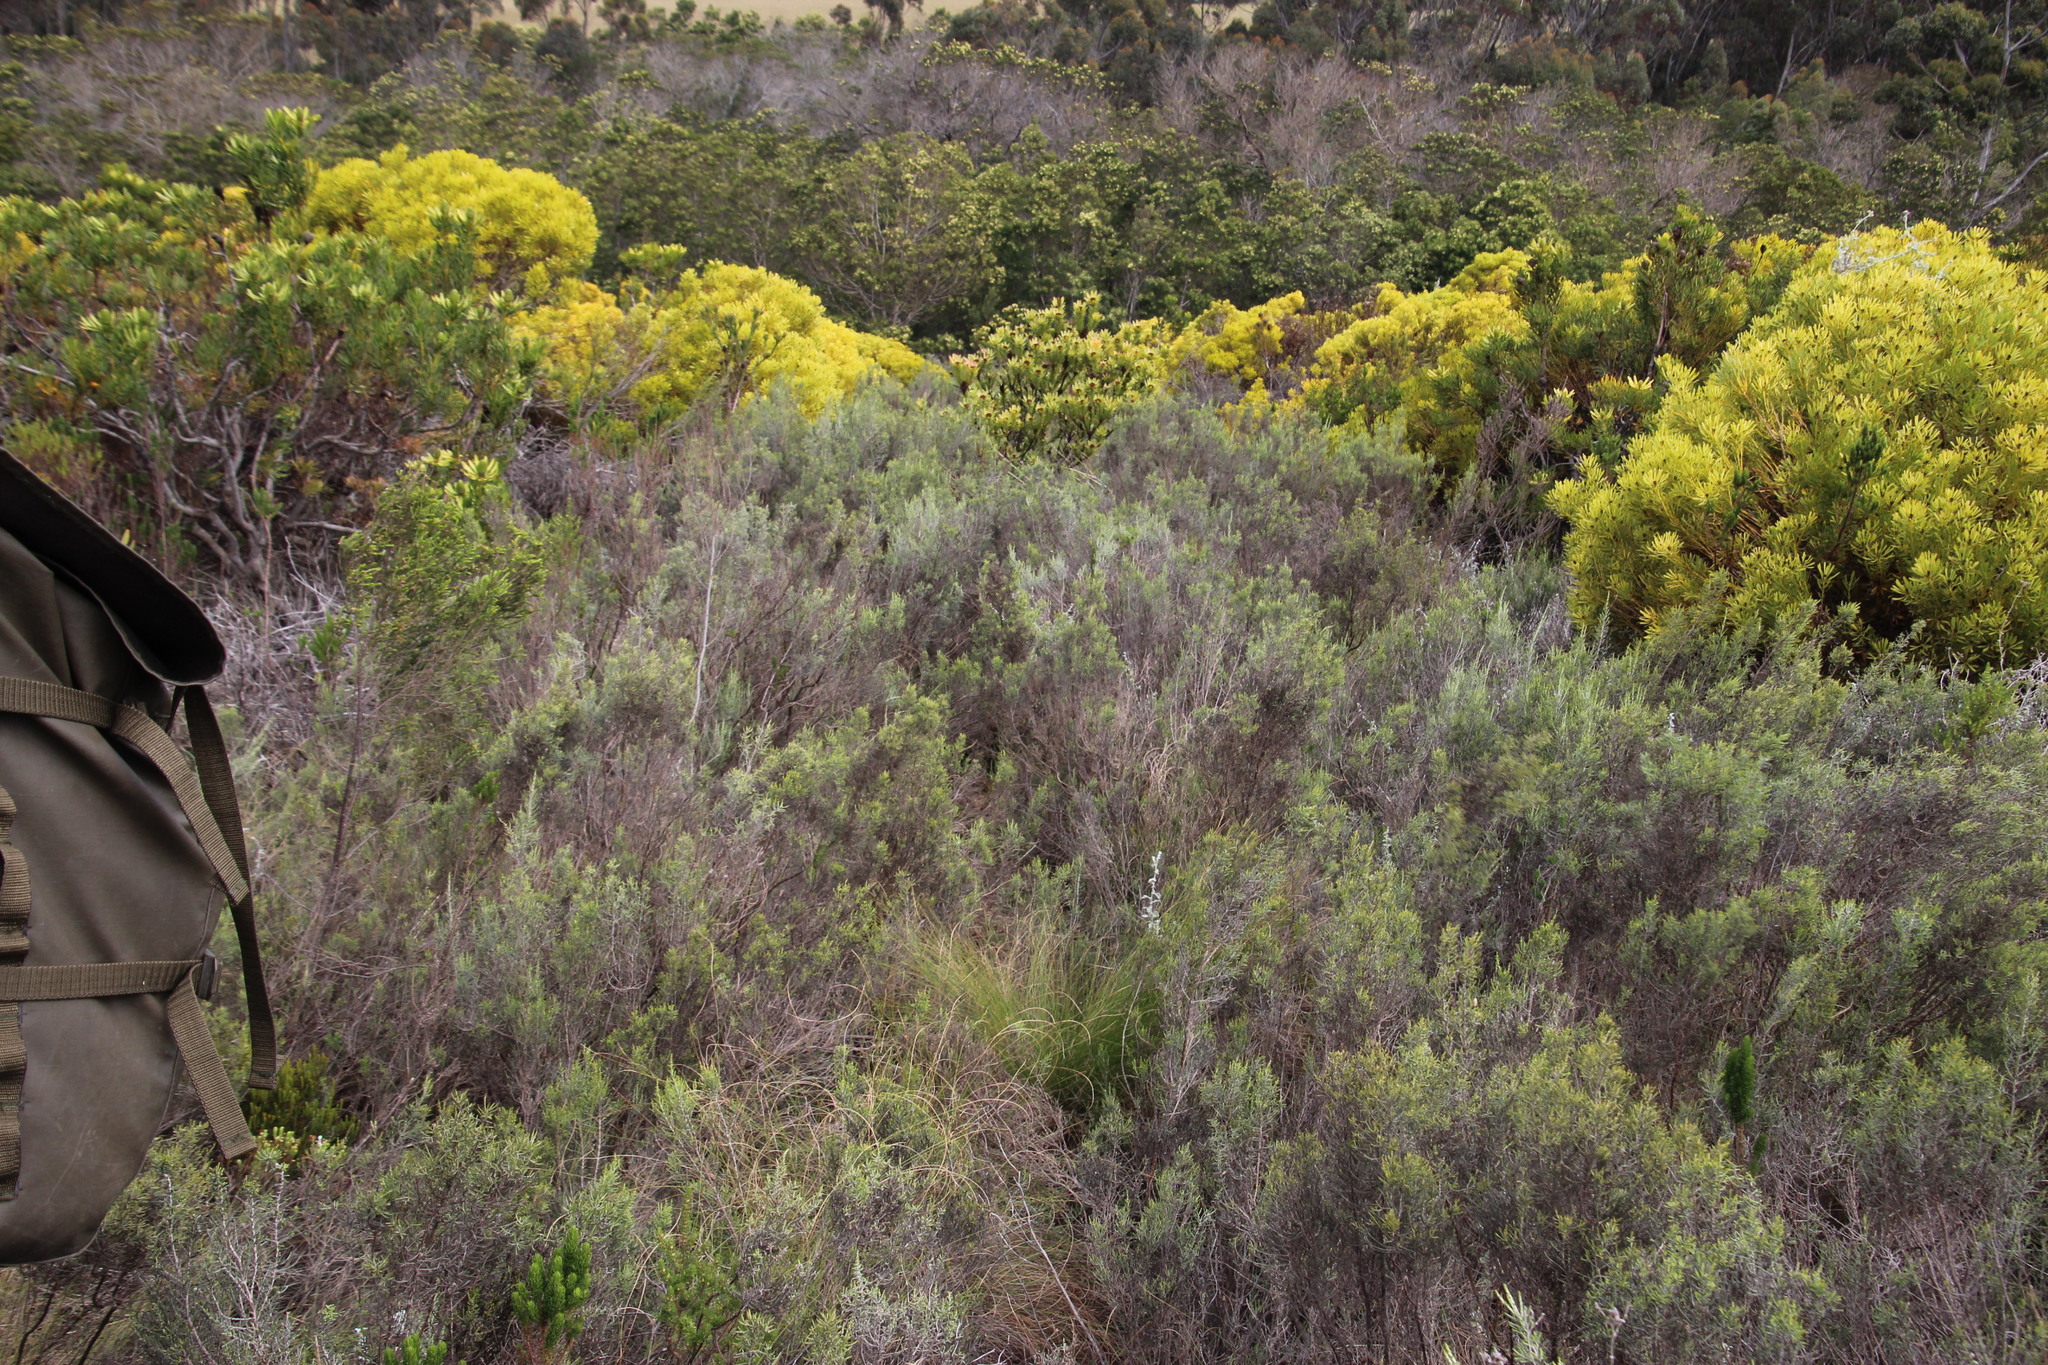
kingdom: Plantae
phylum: Tracheophyta
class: Magnoliopsida
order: Asterales
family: Asteraceae
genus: Dicerothamnus
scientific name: Dicerothamnus rhinocerotis
